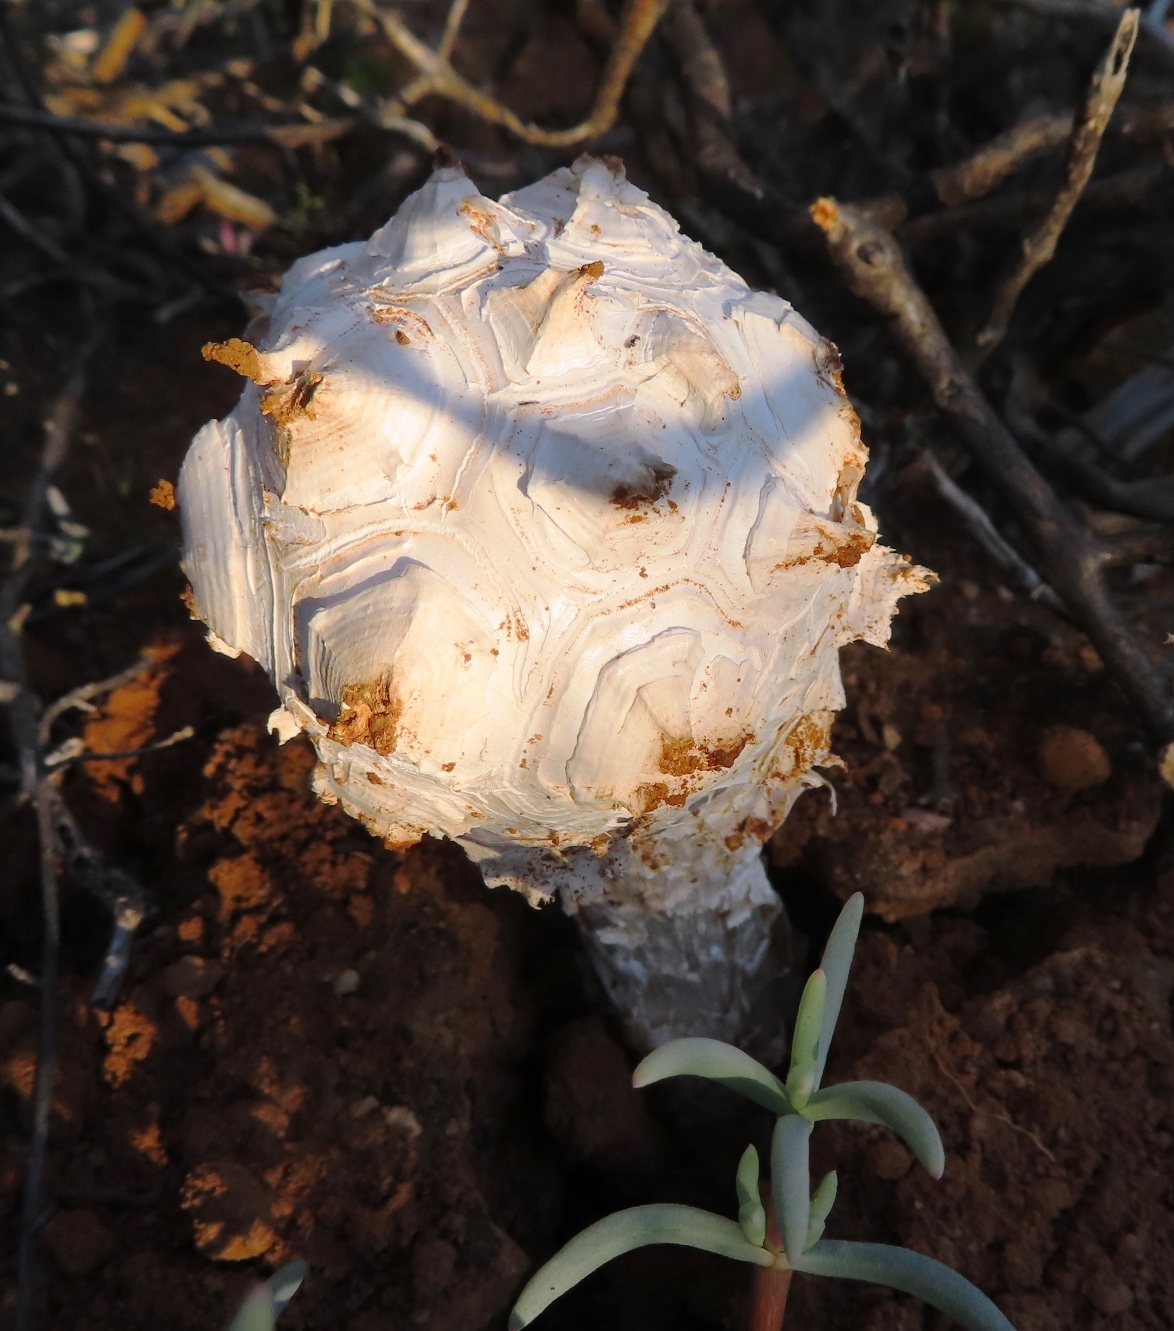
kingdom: Fungi
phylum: Basidiomycota
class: Agaricomycetes
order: Agaricales
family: Agaricaceae
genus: Phellorinia
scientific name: Phellorinia herculeana
